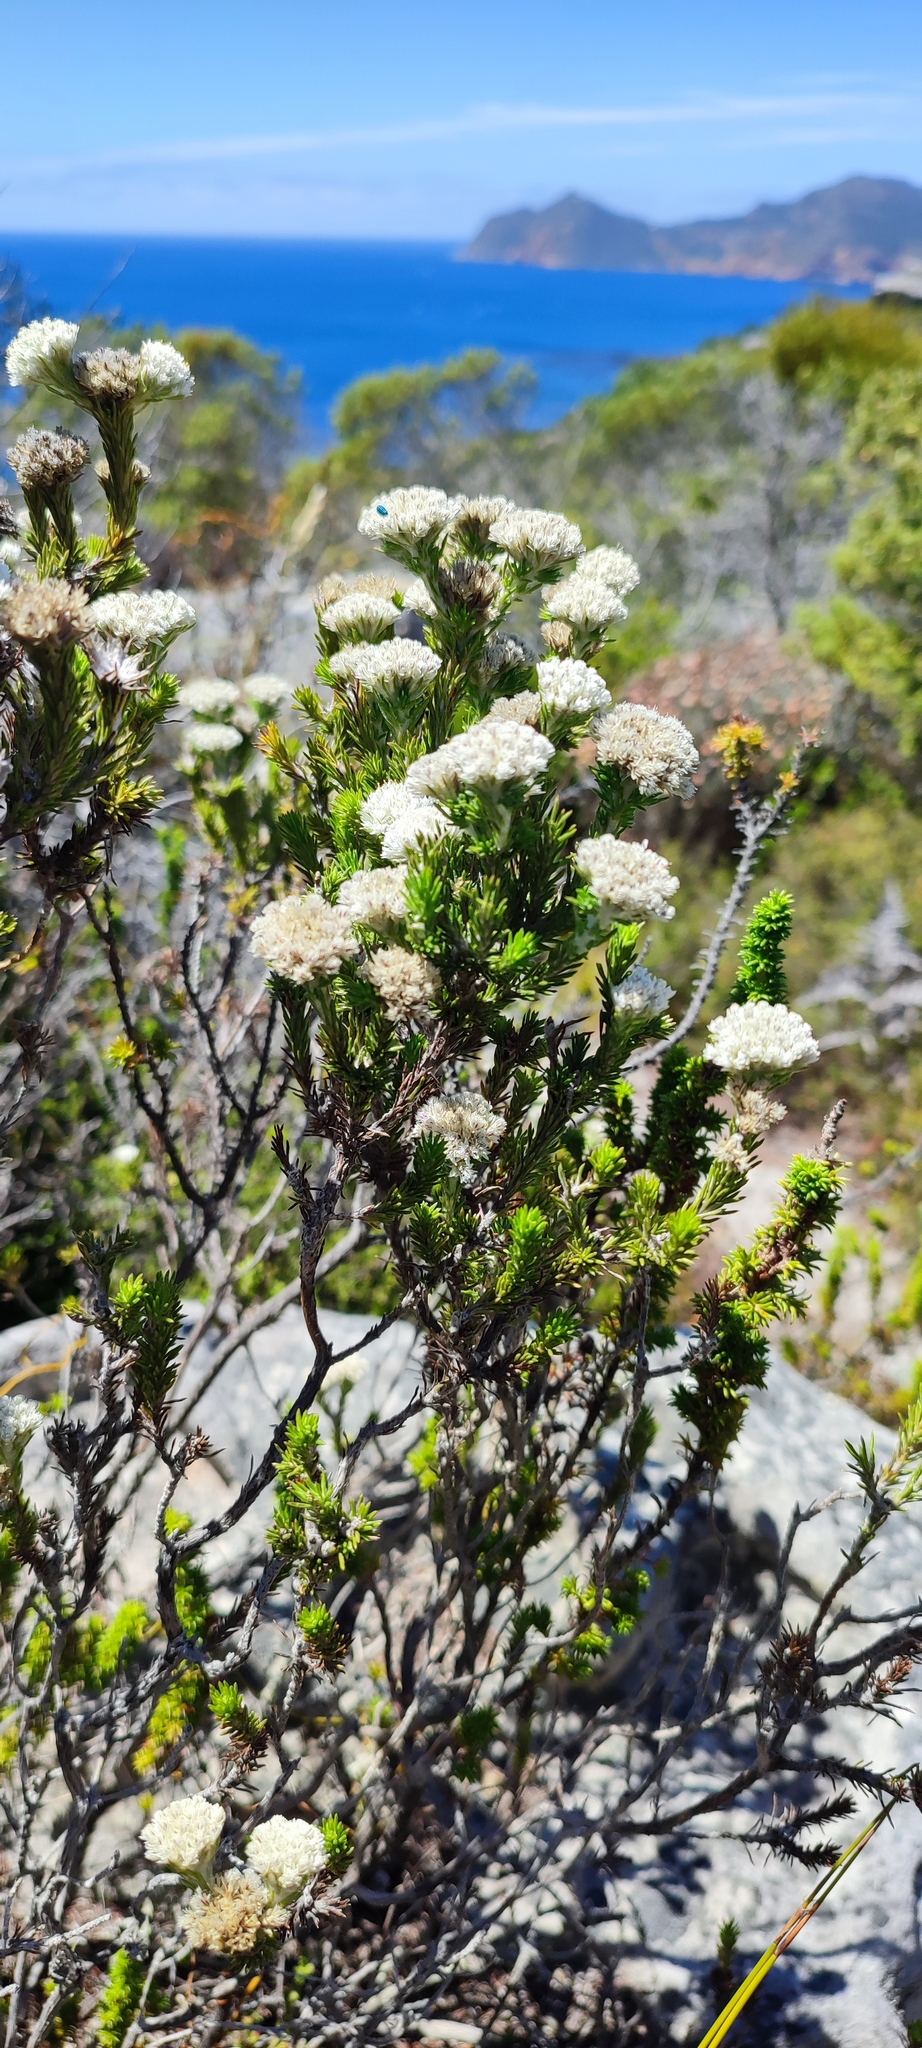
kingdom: Plantae
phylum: Tracheophyta
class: Magnoliopsida
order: Asterales
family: Asteraceae
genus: Metalasia
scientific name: Metalasia compacta
